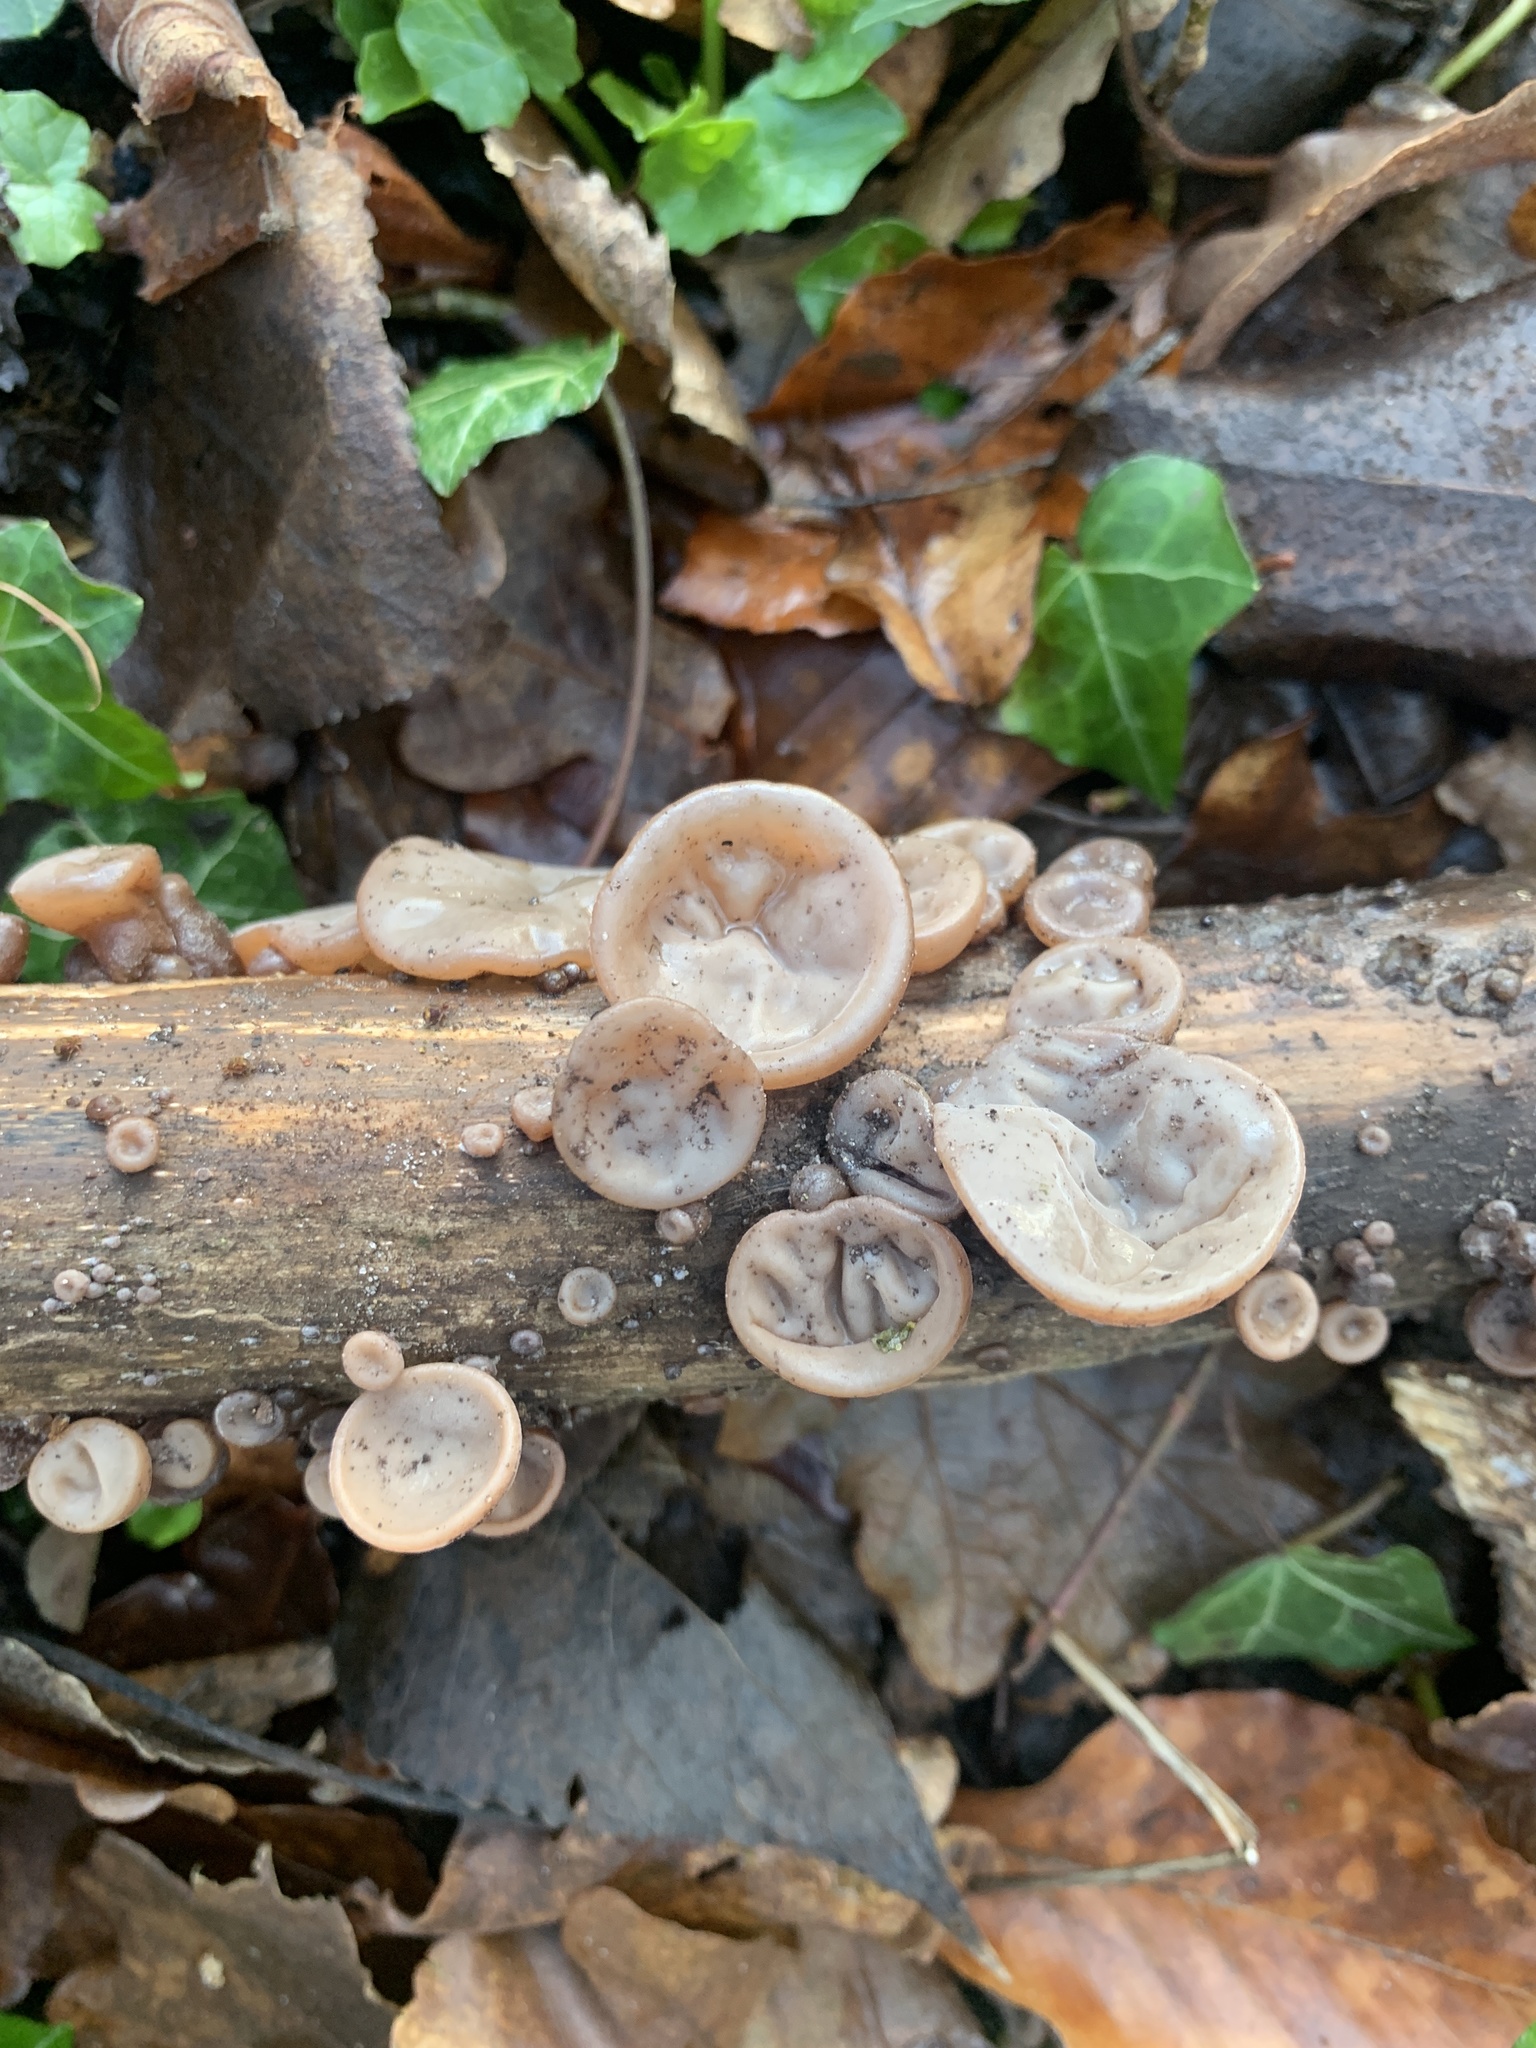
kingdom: Fungi
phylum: Basidiomycota
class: Agaricomycetes
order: Auriculariales
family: Auriculariaceae
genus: Auricularia
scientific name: Auricularia auricula-judae
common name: Jelly ear
